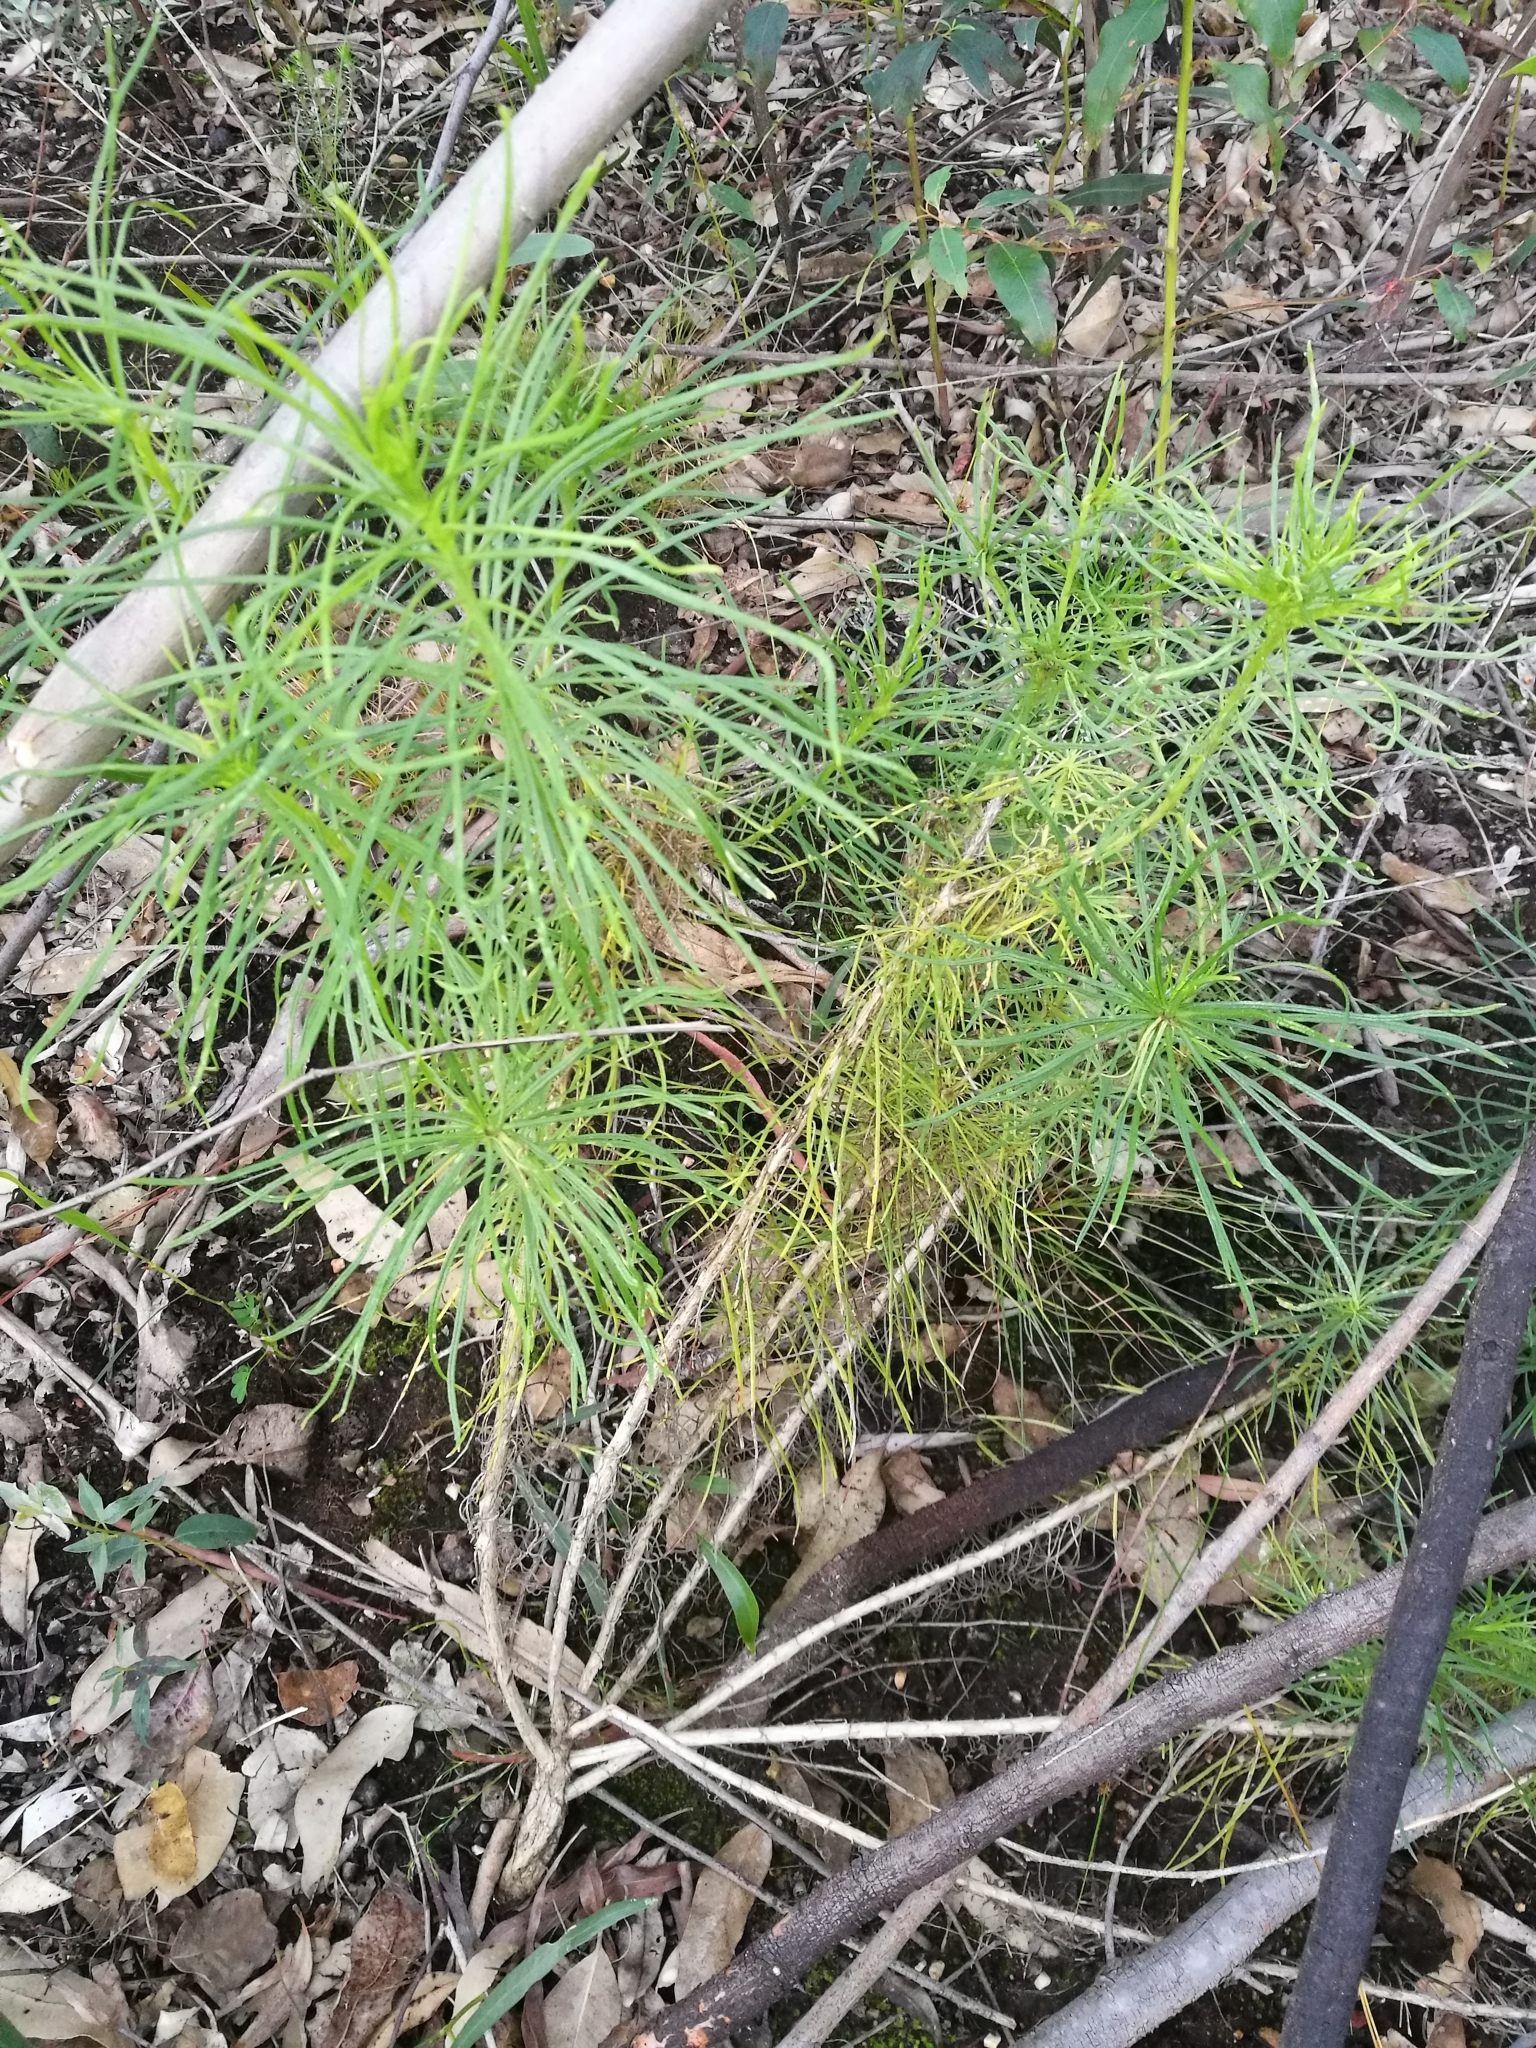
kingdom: Plantae
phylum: Tracheophyta
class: Magnoliopsida
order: Asterales
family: Asteraceae
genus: Senecio
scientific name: Senecio chrysocoma
